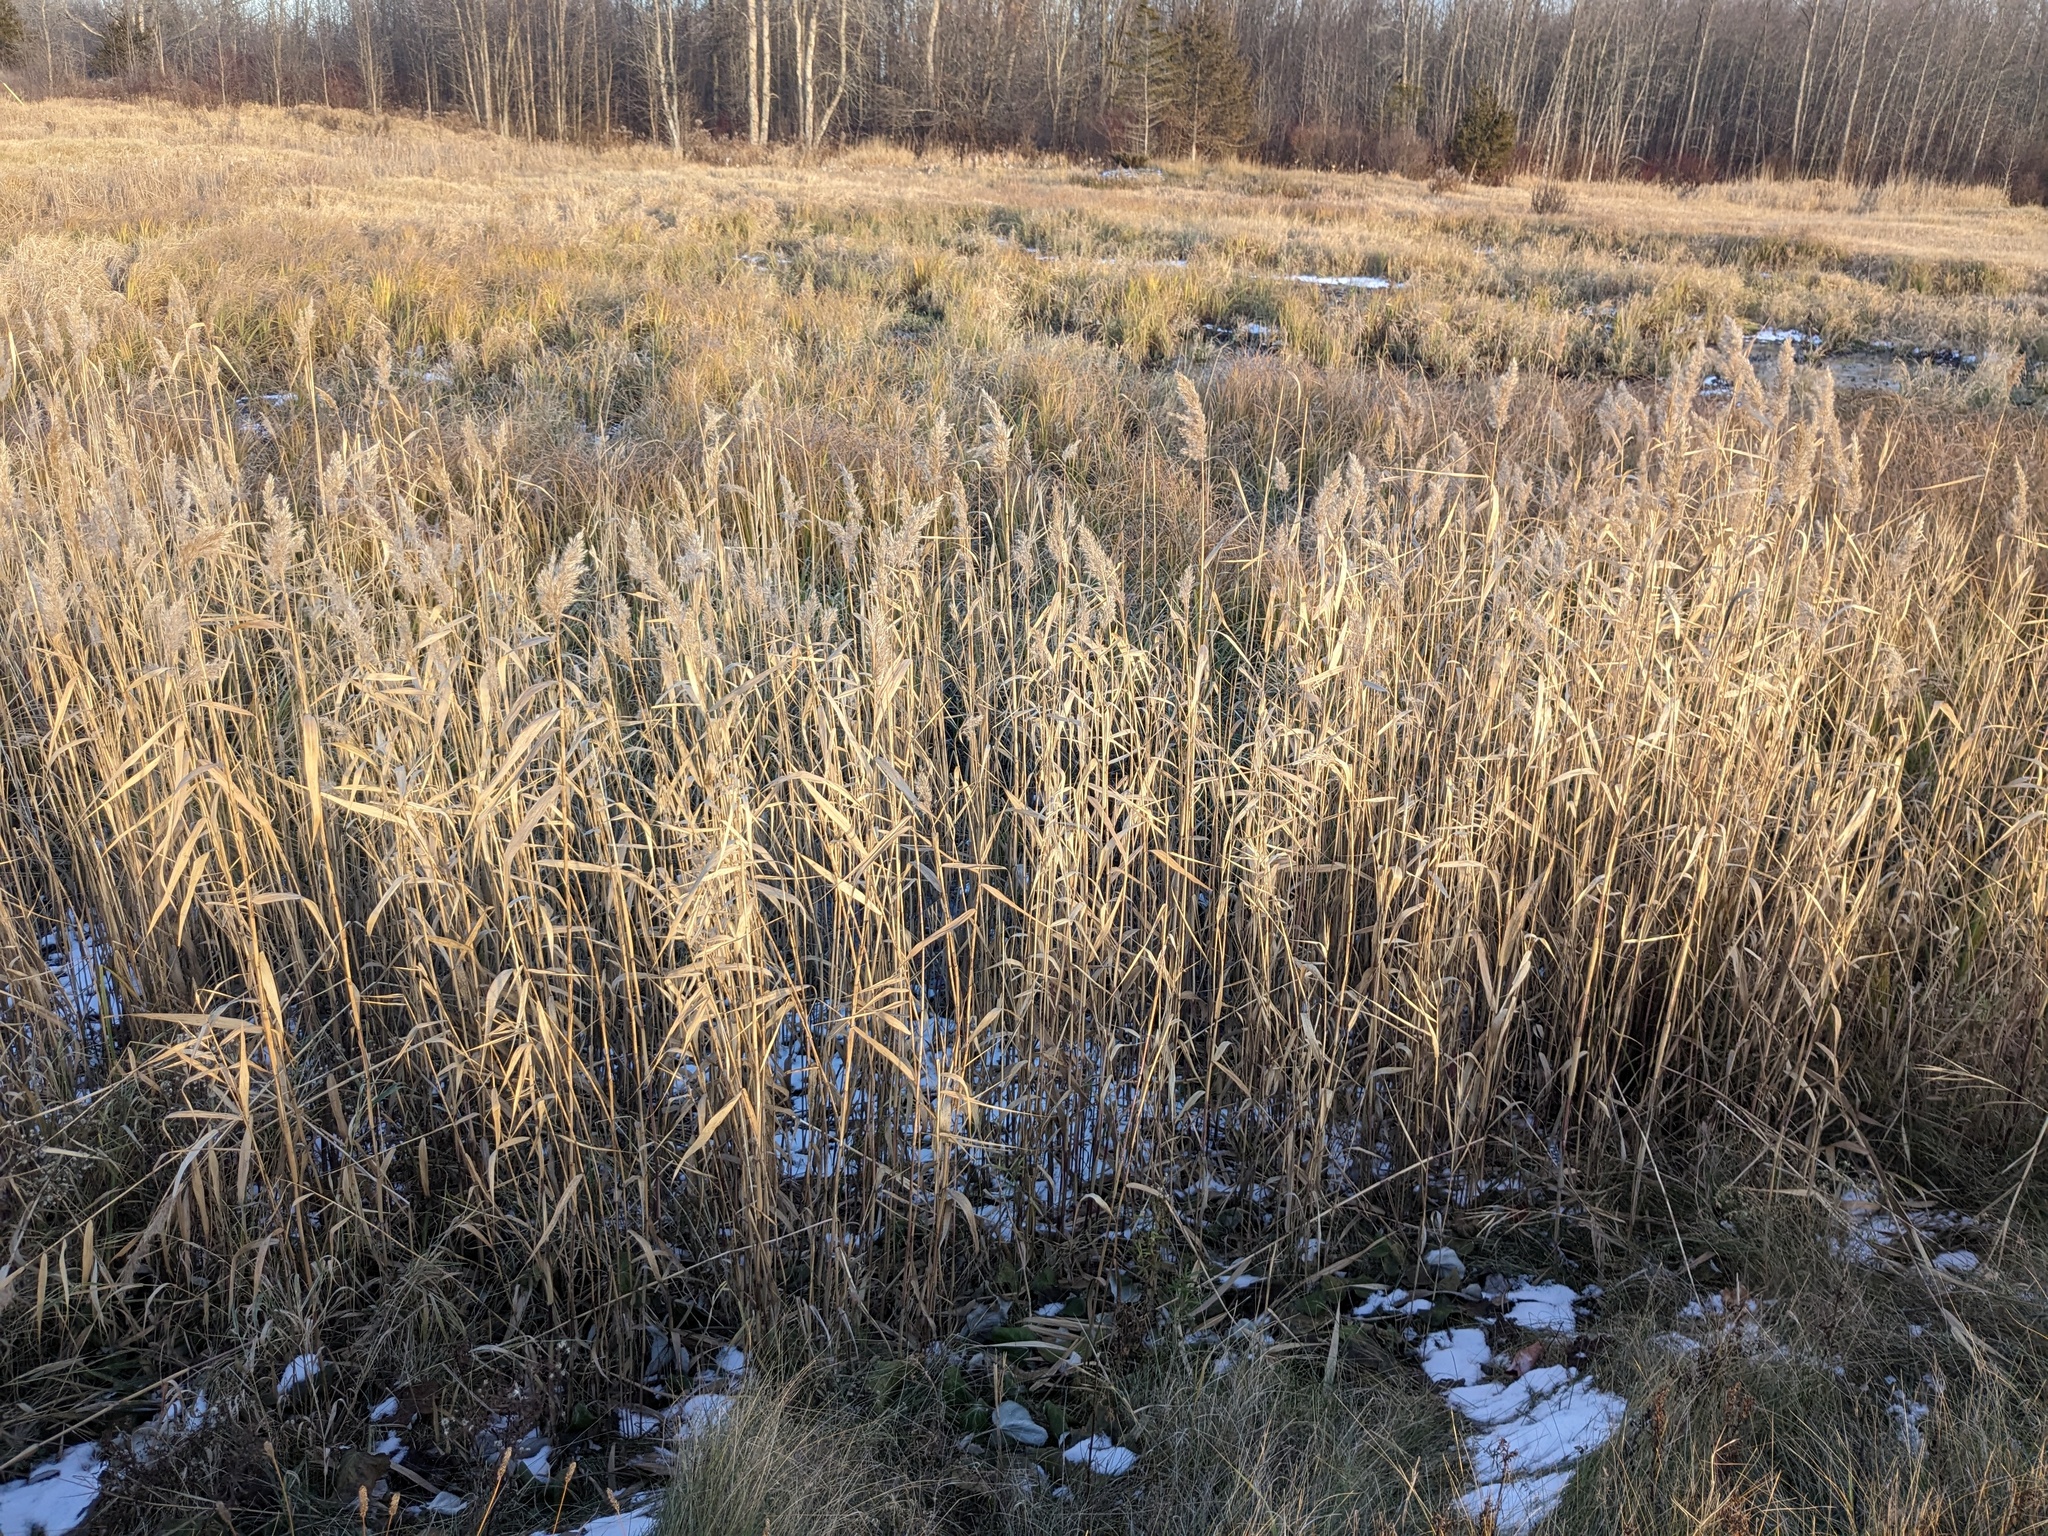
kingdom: Plantae
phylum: Tracheophyta
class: Liliopsida
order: Poales
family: Poaceae
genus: Phragmites
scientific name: Phragmites australis
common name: Common reed
